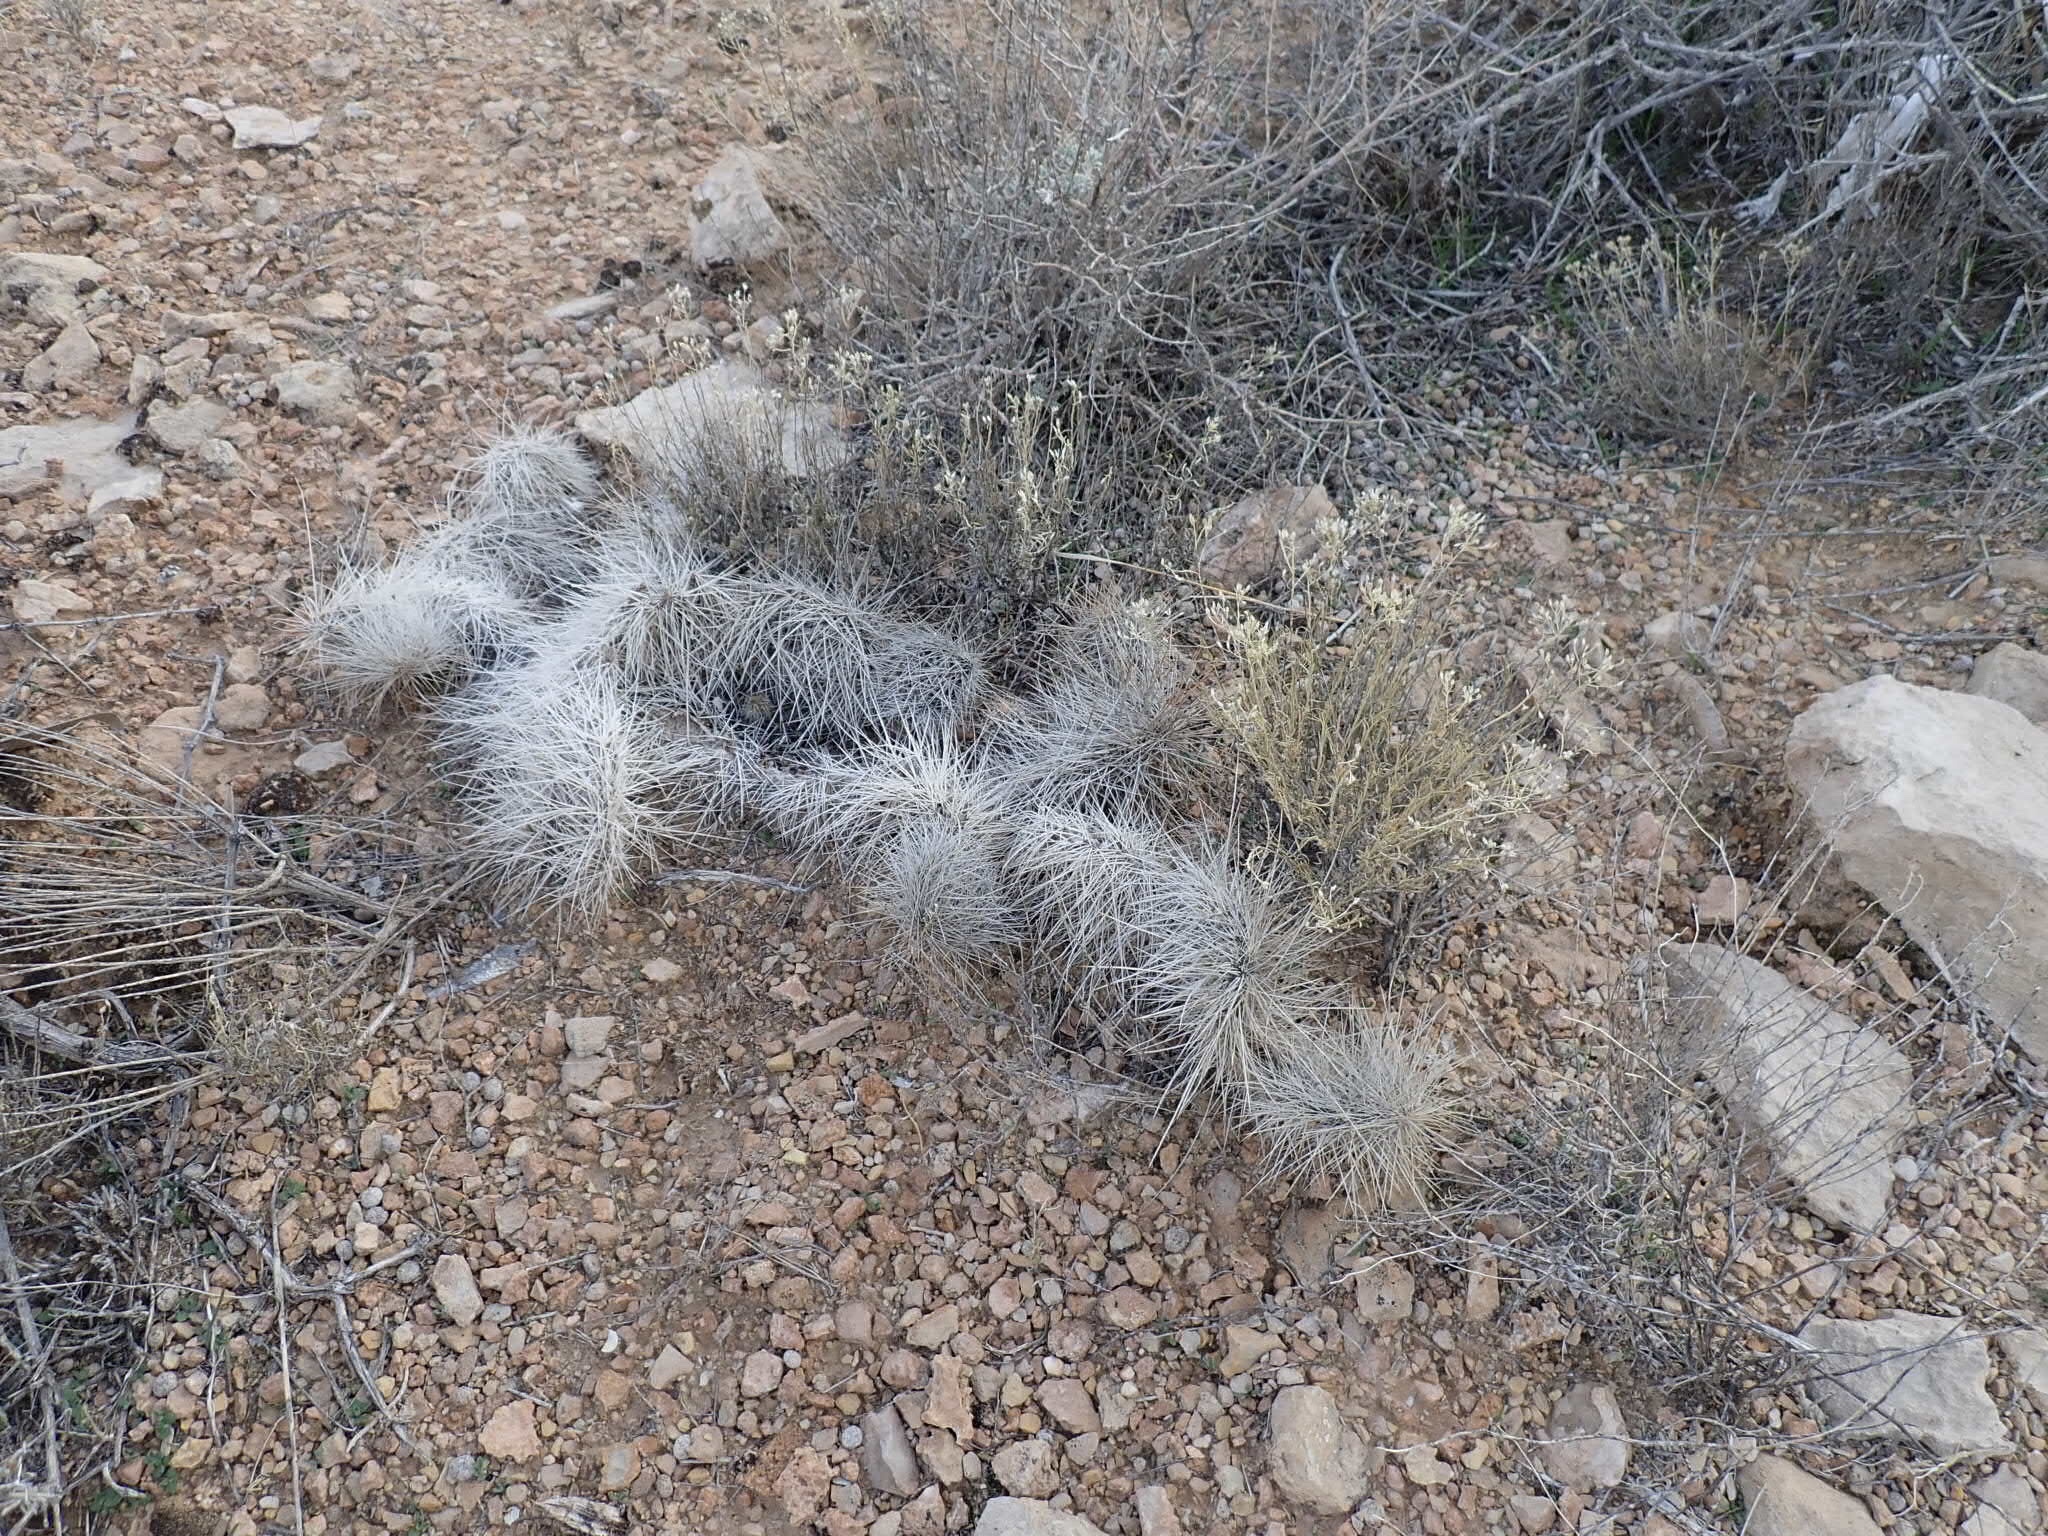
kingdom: Plantae
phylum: Tracheophyta
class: Magnoliopsida
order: Caryophyllales
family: Cactaceae
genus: Opuntia
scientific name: Opuntia polyacantha
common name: Plains prickly-pear
